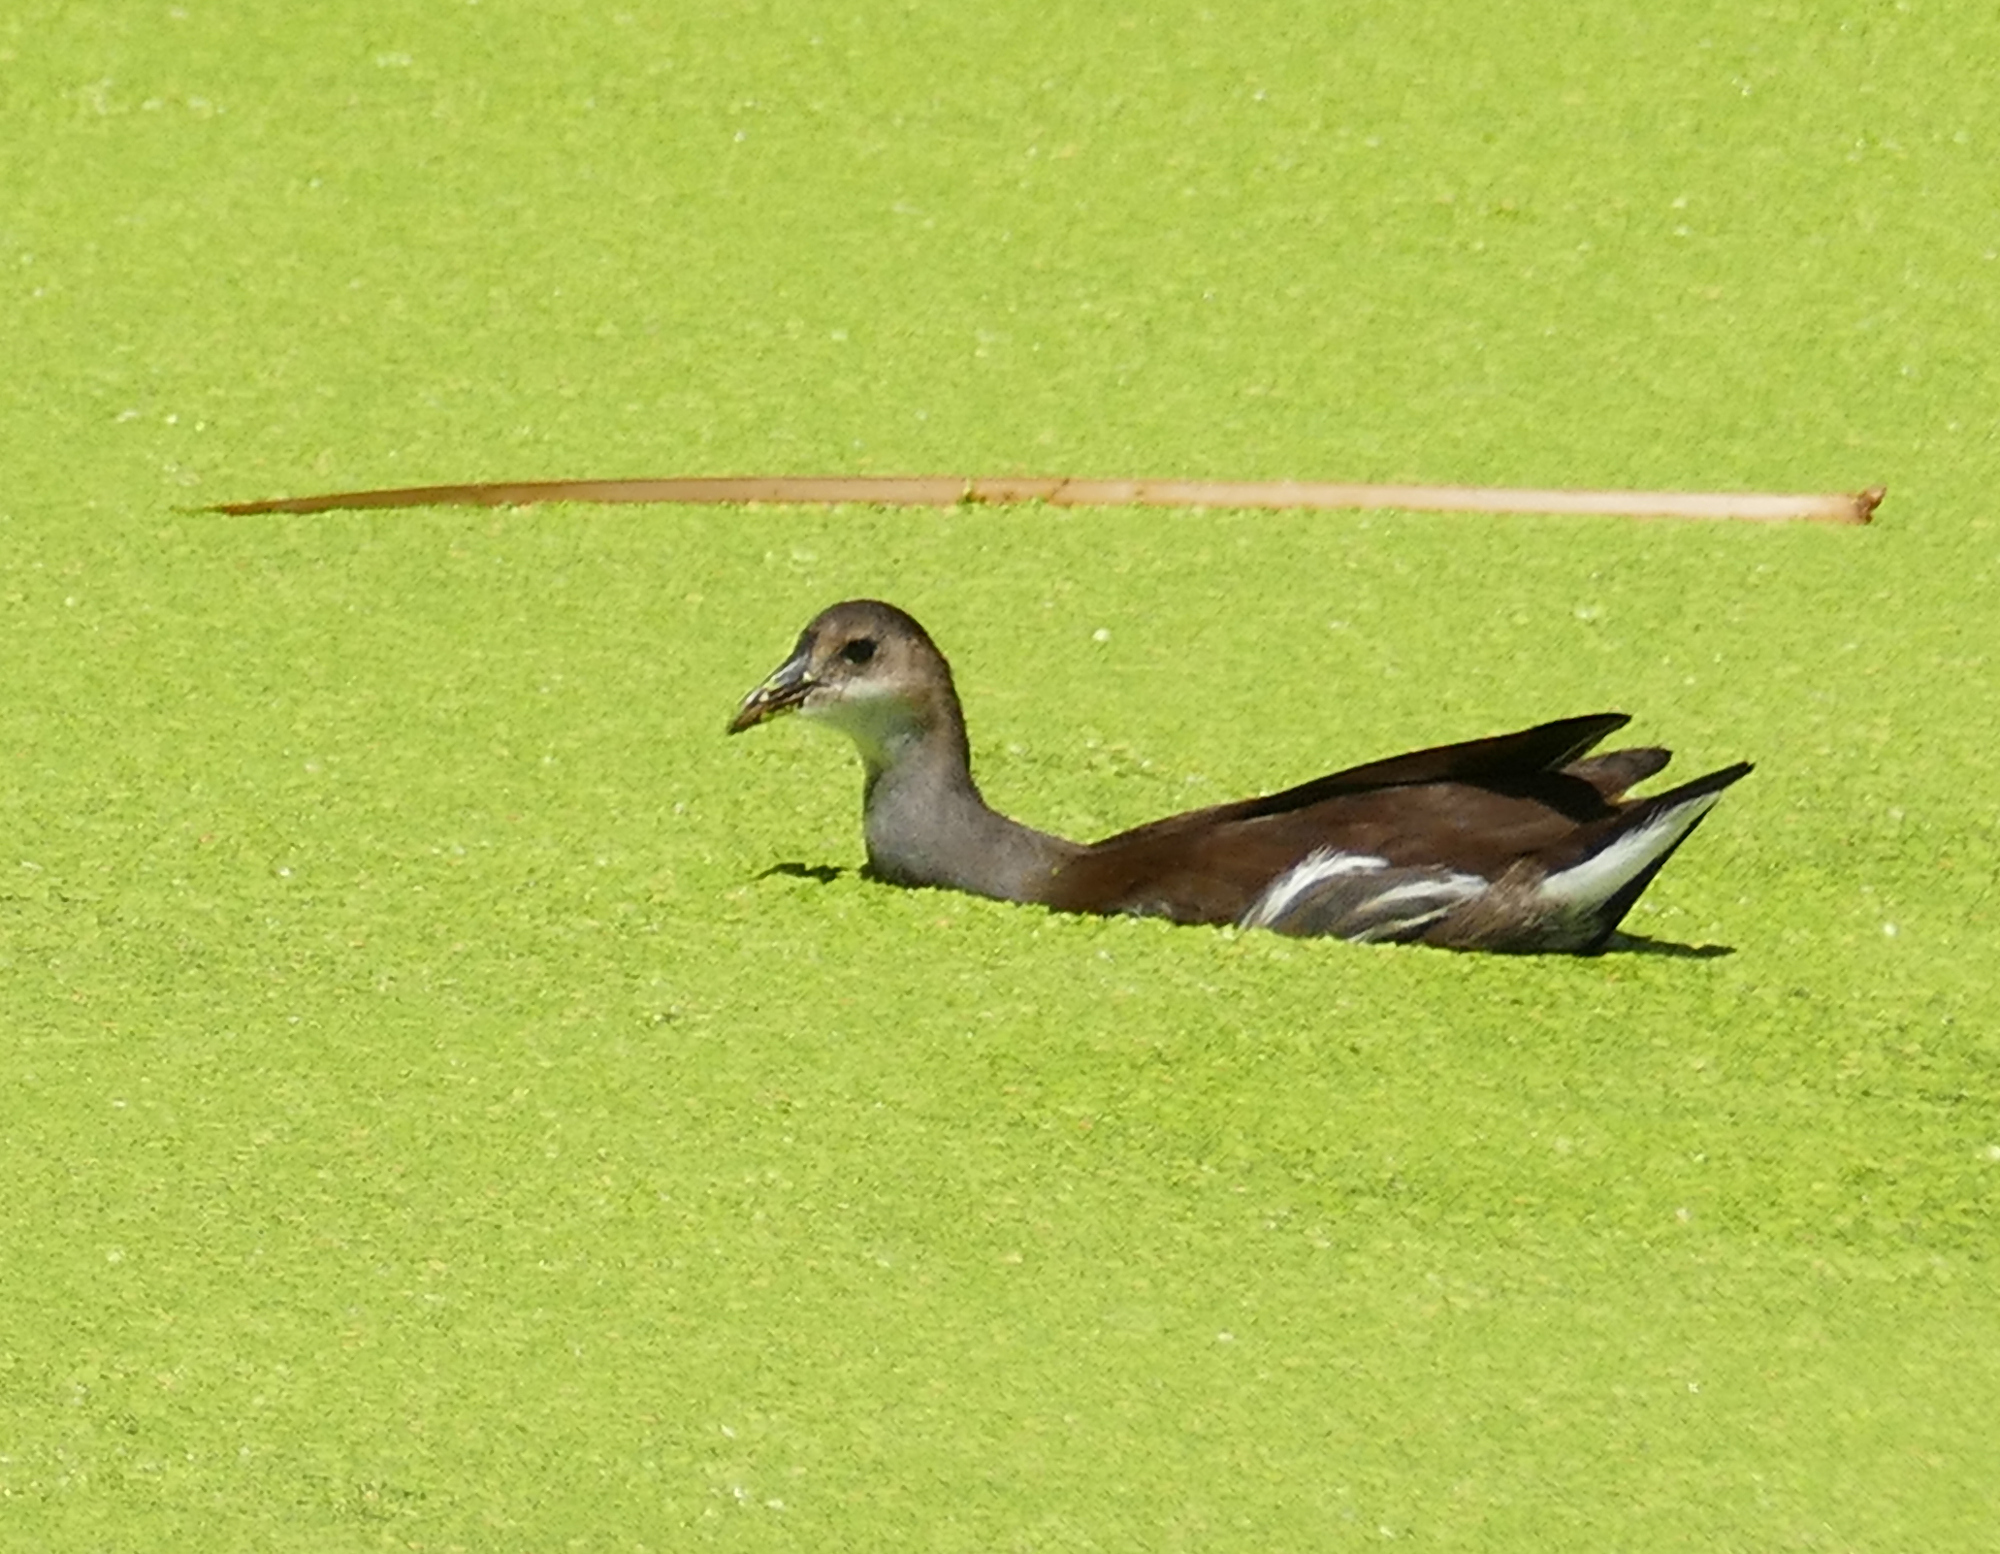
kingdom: Animalia
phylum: Chordata
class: Aves
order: Gruiformes
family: Rallidae
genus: Gallinula
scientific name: Gallinula chloropus
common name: Common moorhen
